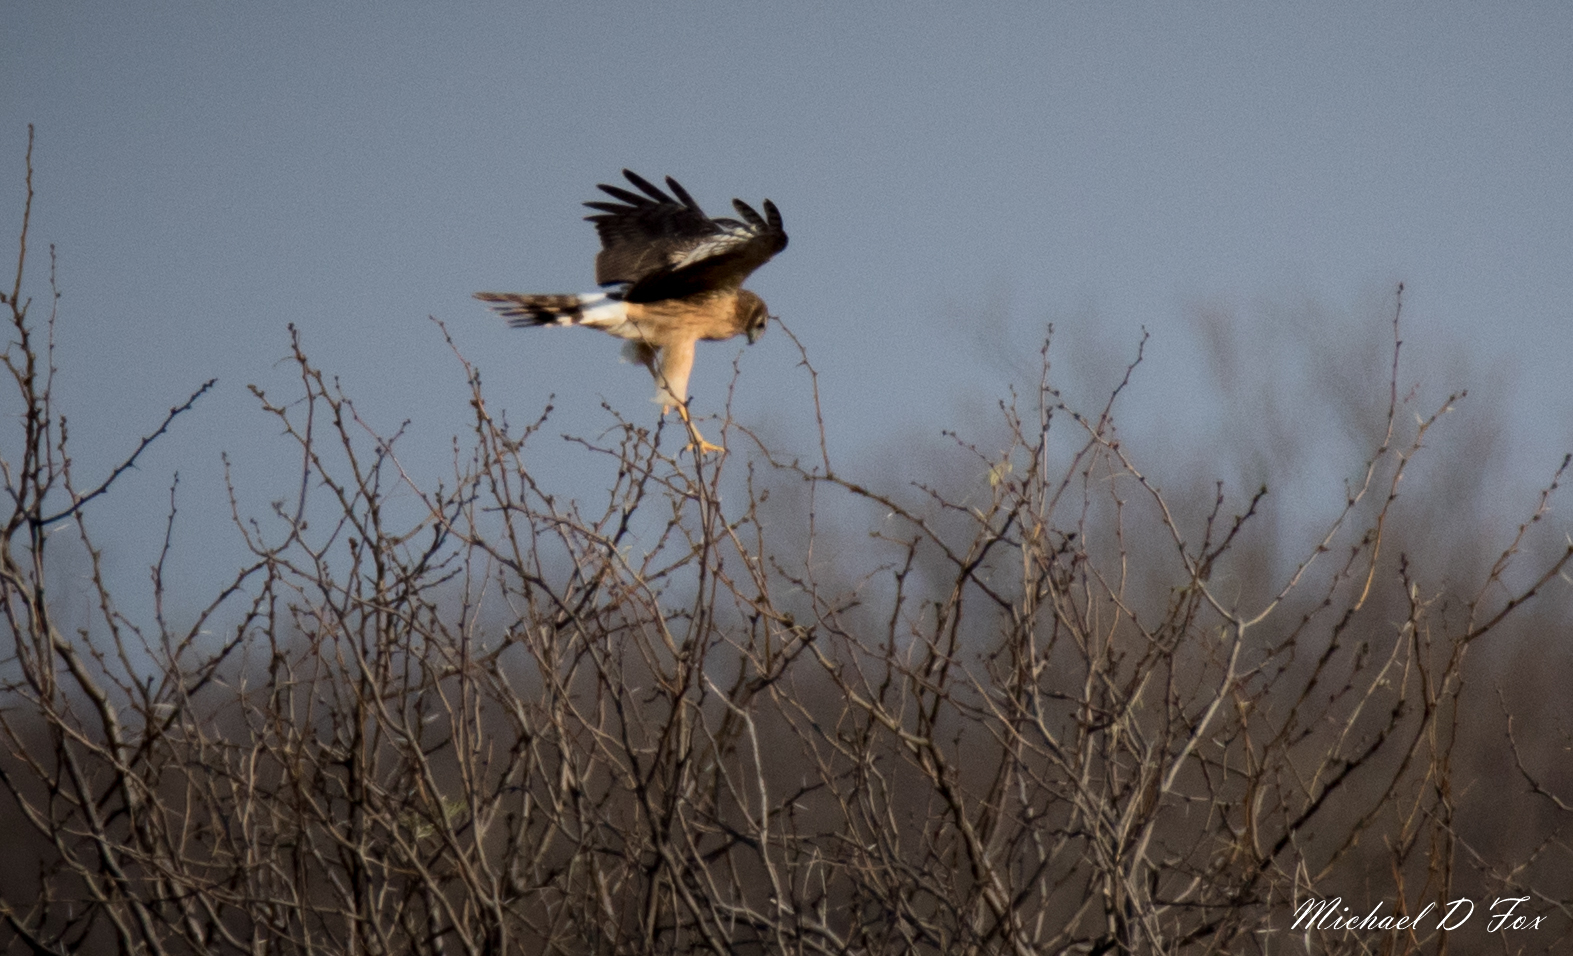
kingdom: Animalia
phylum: Chordata
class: Aves
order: Accipitriformes
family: Accipitridae
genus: Circus
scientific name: Circus cyaneus
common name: Hen harrier
